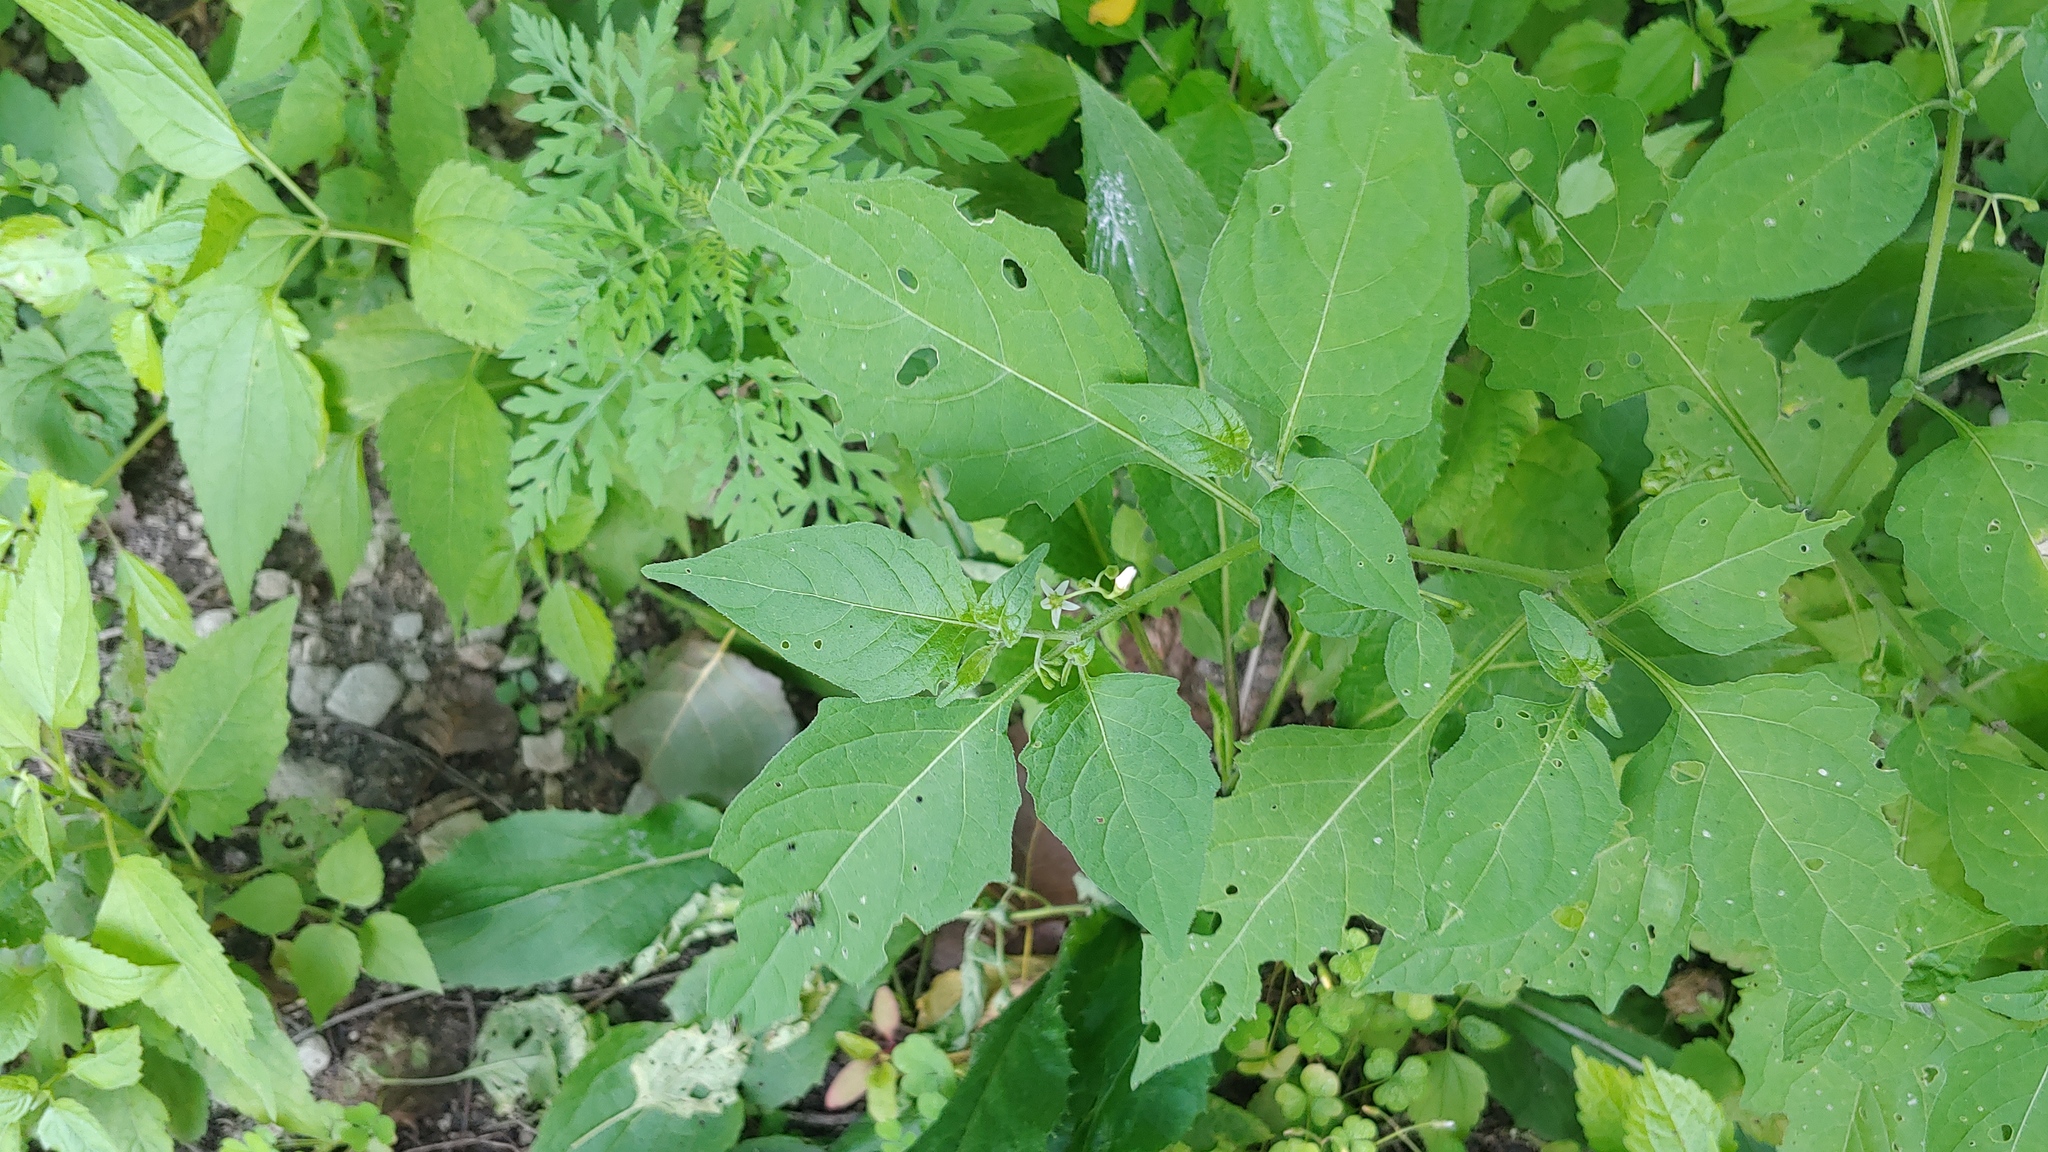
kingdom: Plantae
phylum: Tracheophyta
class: Magnoliopsida
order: Solanales
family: Solanaceae
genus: Solanum
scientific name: Solanum emulans
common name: Eastern black nightshade
